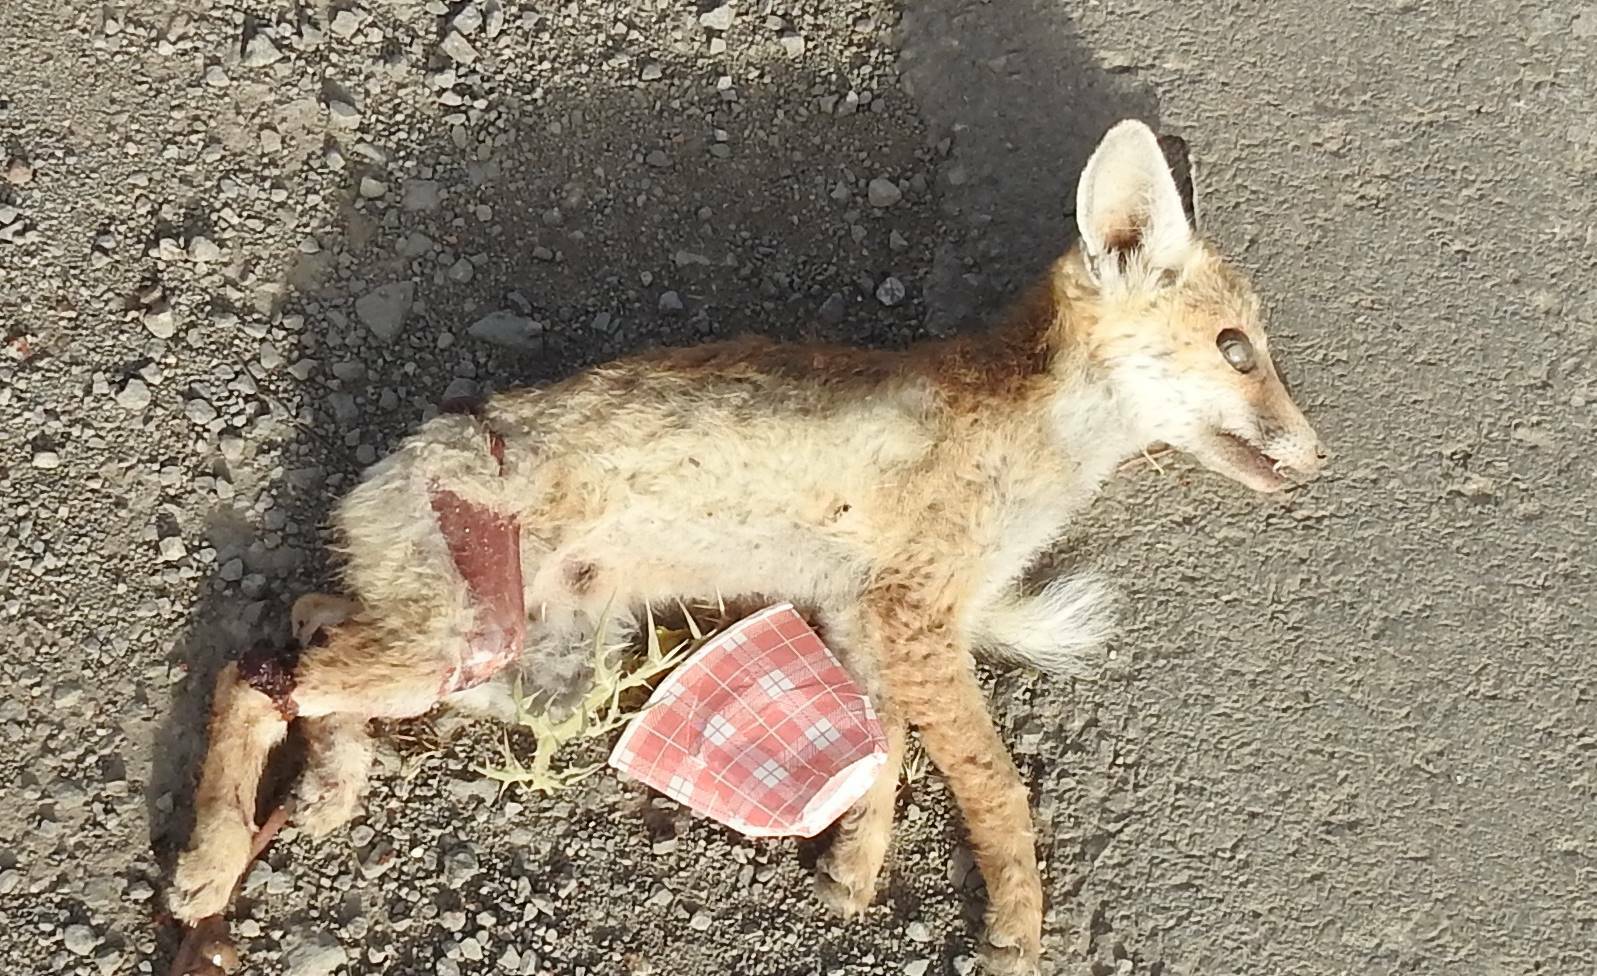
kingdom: Animalia
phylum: Chordata
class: Mammalia
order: Carnivora
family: Canidae
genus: Vulpes
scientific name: Vulpes vulpes
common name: Red fox
